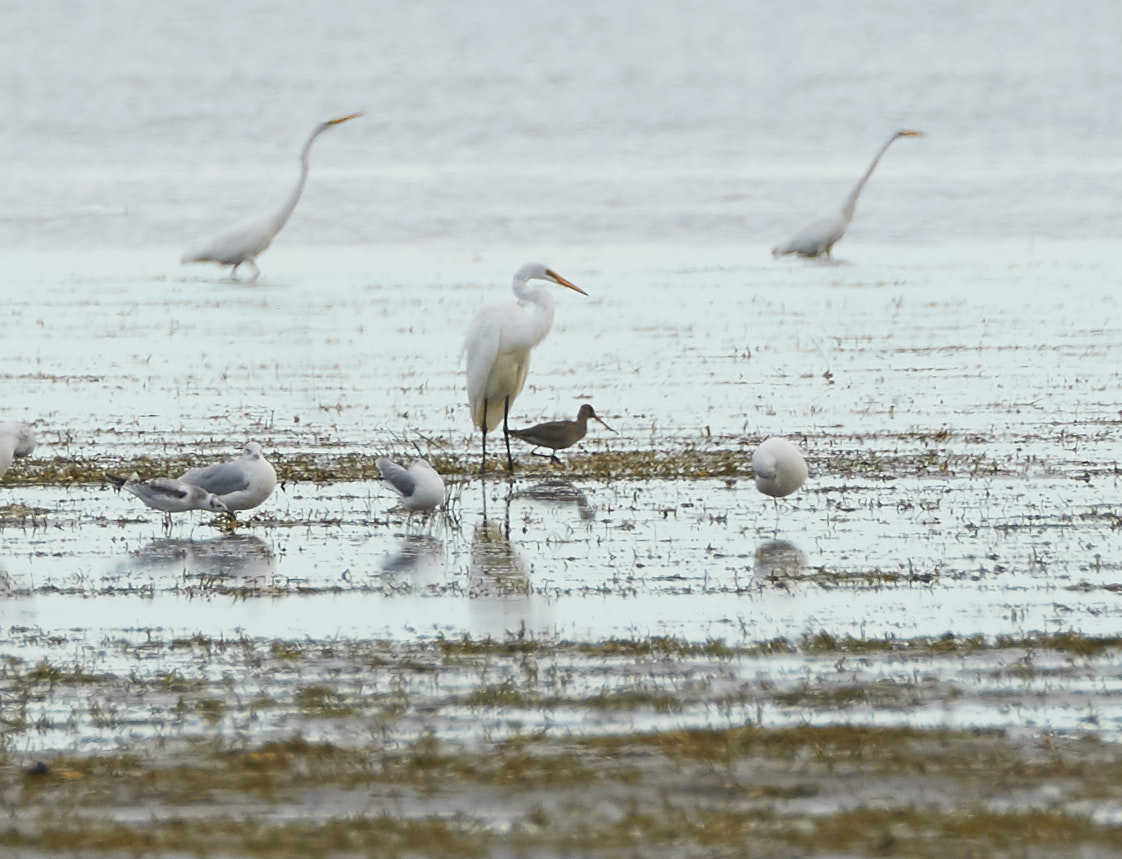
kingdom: Animalia
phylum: Chordata
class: Aves
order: Charadriiformes
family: Scolopacidae
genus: Limosa
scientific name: Limosa haemastica
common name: Hudsonian godwit
